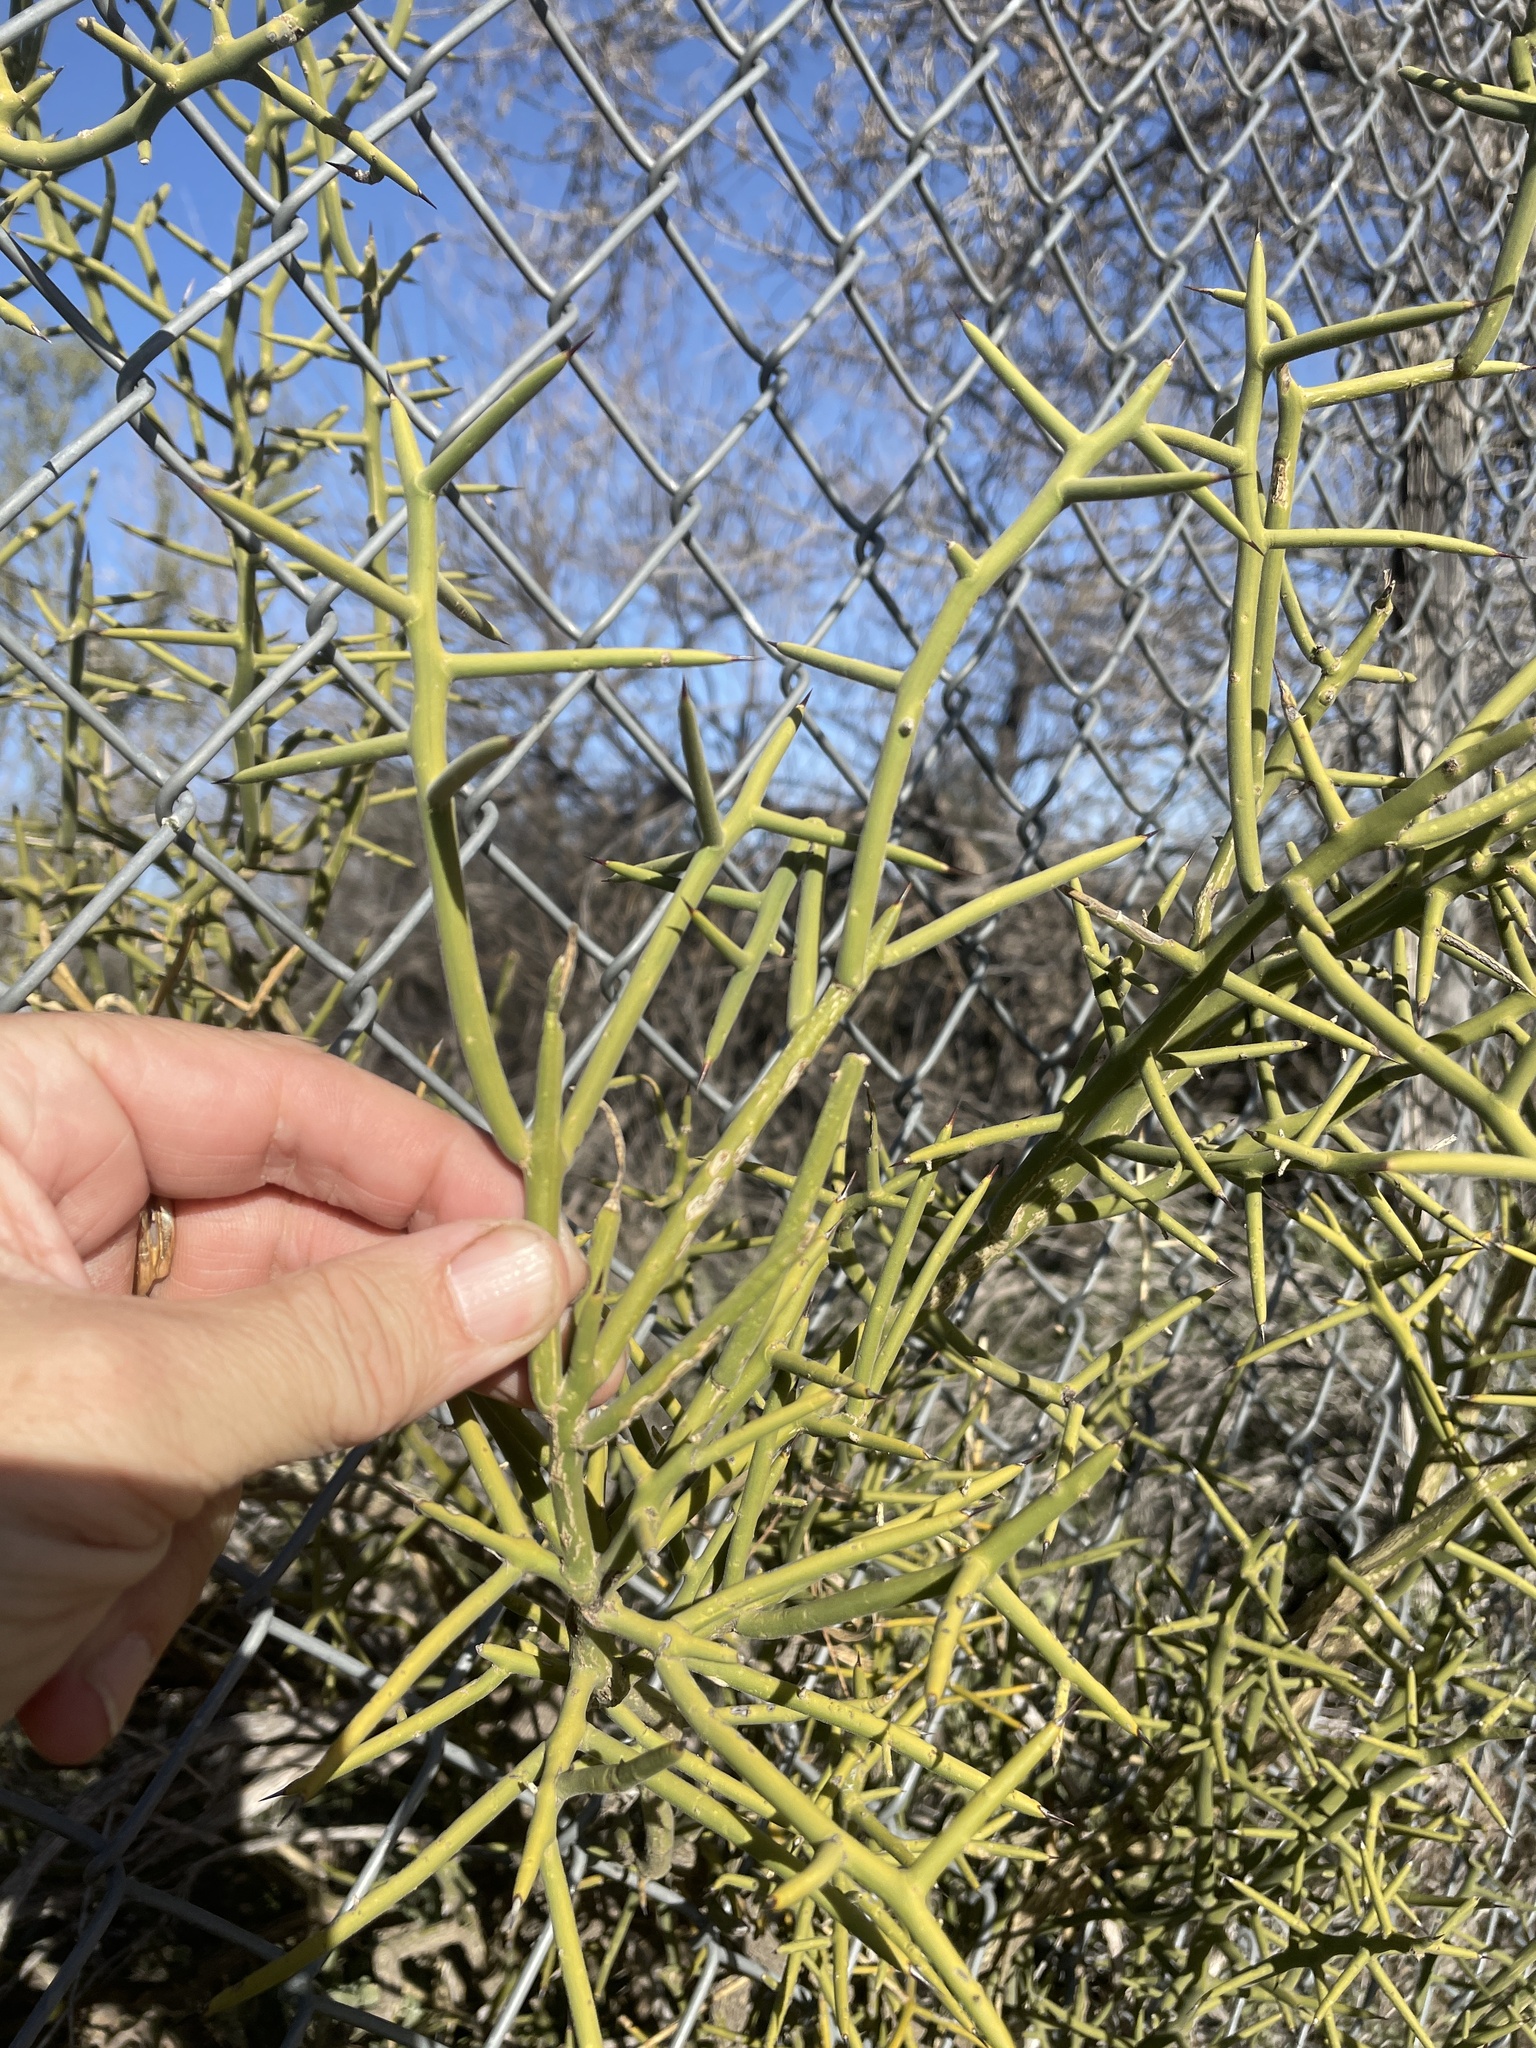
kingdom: Plantae
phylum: Tracheophyta
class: Magnoliopsida
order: Brassicales
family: Koeberliniaceae
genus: Koeberlinia
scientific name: Koeberlinia spinosa
